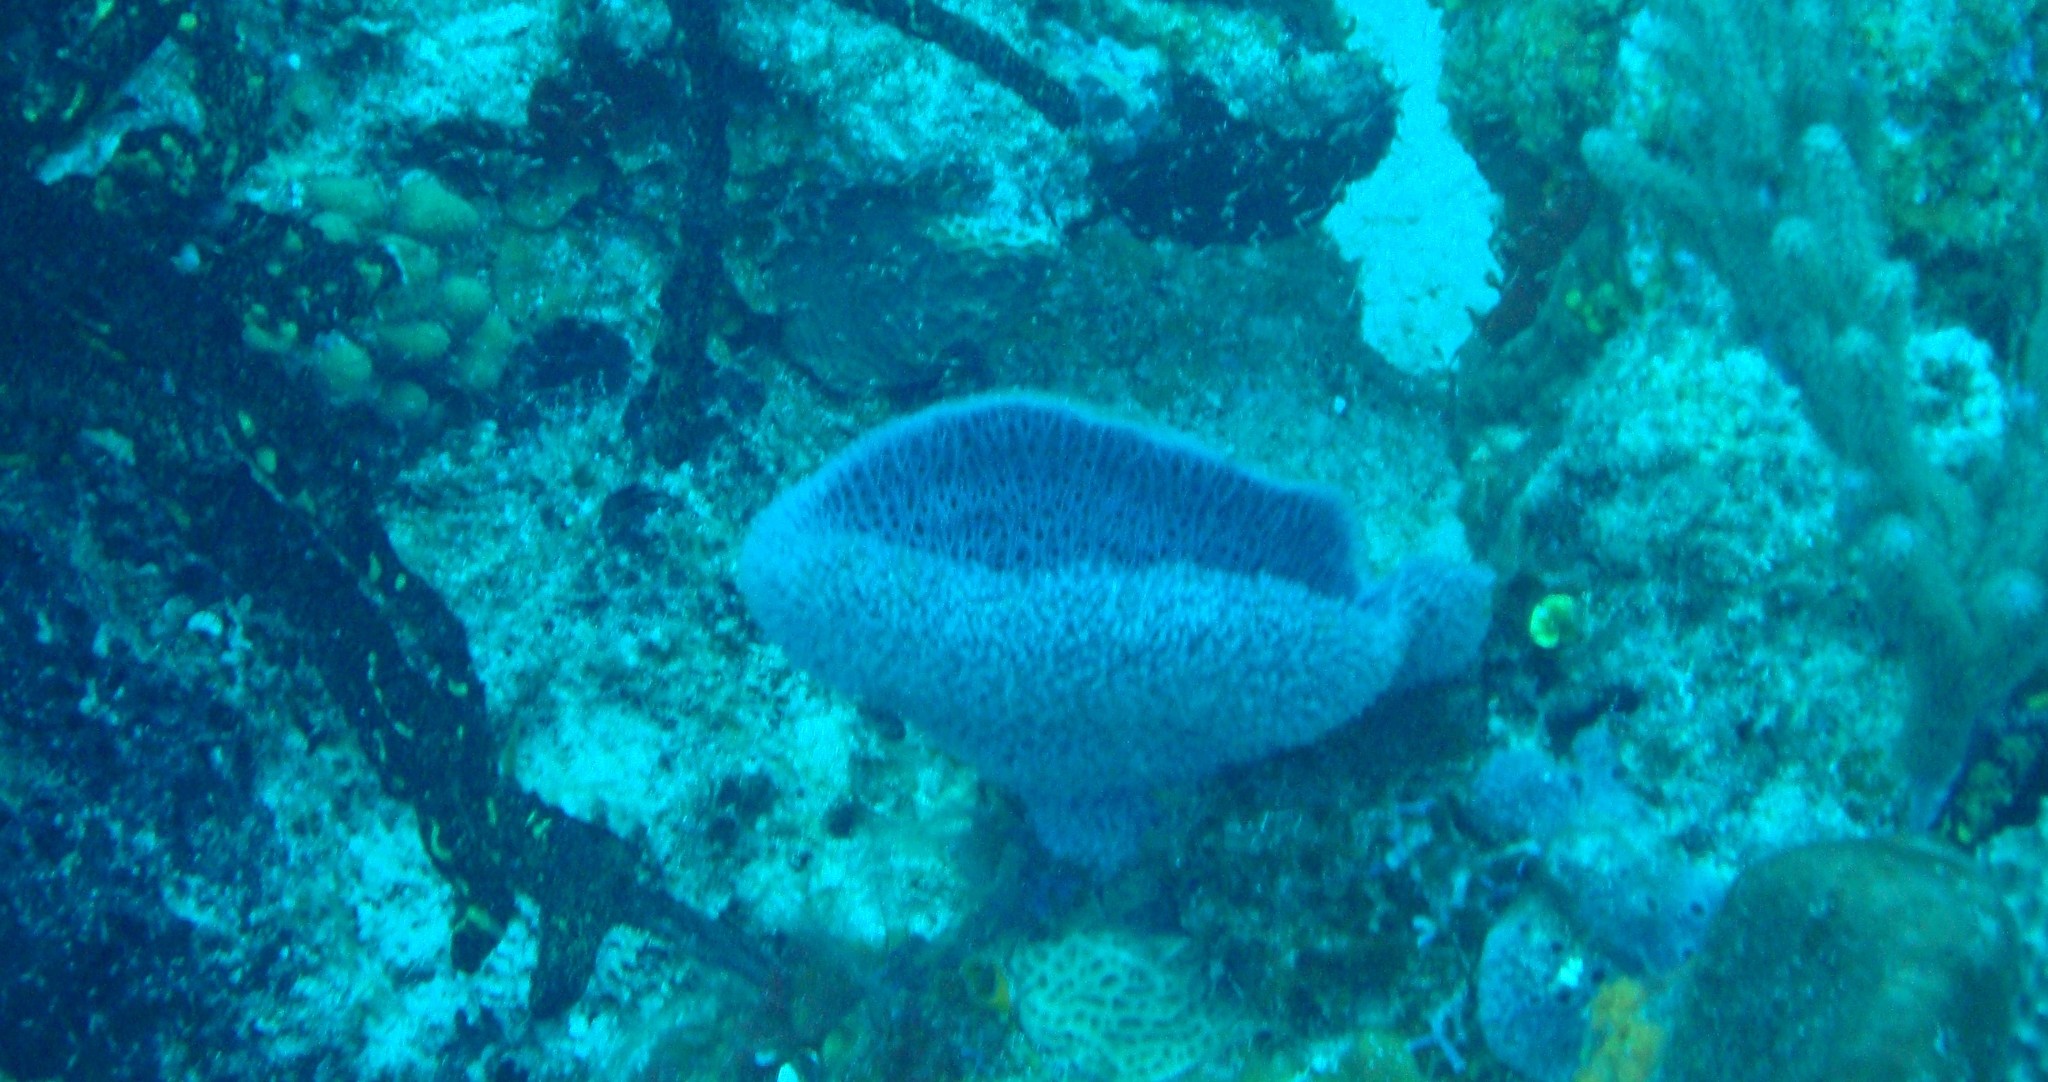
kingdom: Animalia
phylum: Porifera
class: Demospongiae
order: Haplosclerida
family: Niphatidae
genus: Niphates
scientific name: Niphates digitalis
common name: Pink vase sponge
